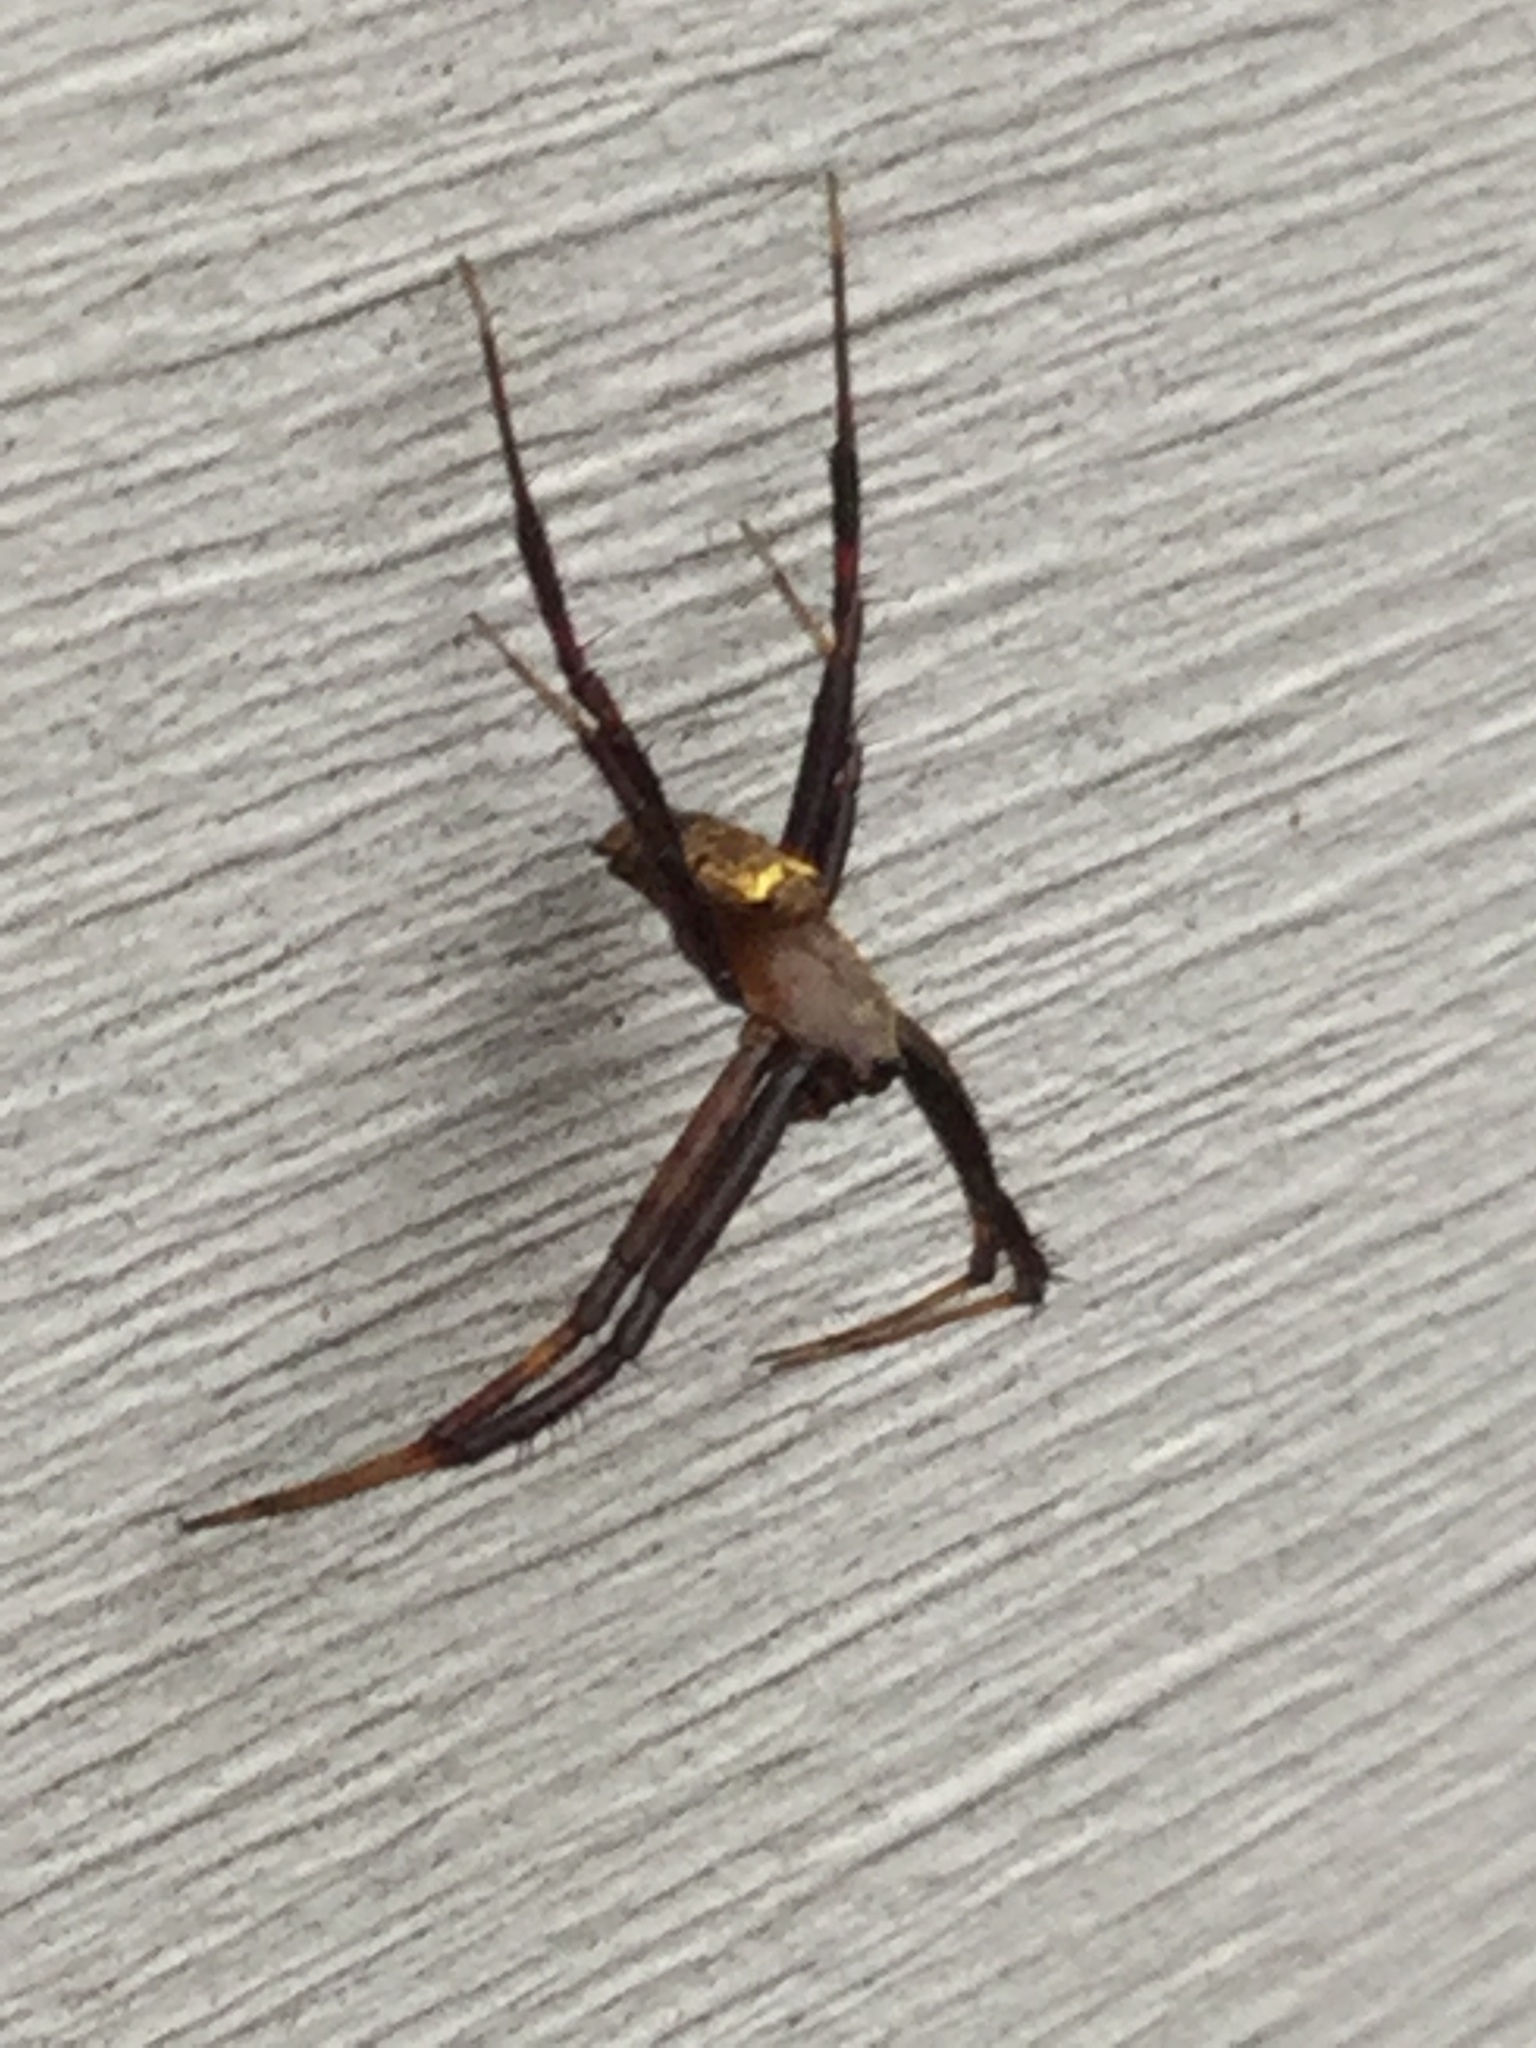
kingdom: Animalia
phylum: Arthropoda
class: Arachnida
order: Araneae
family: Araneidae
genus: Gea
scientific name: Gea heptagon
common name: Orb weavers
